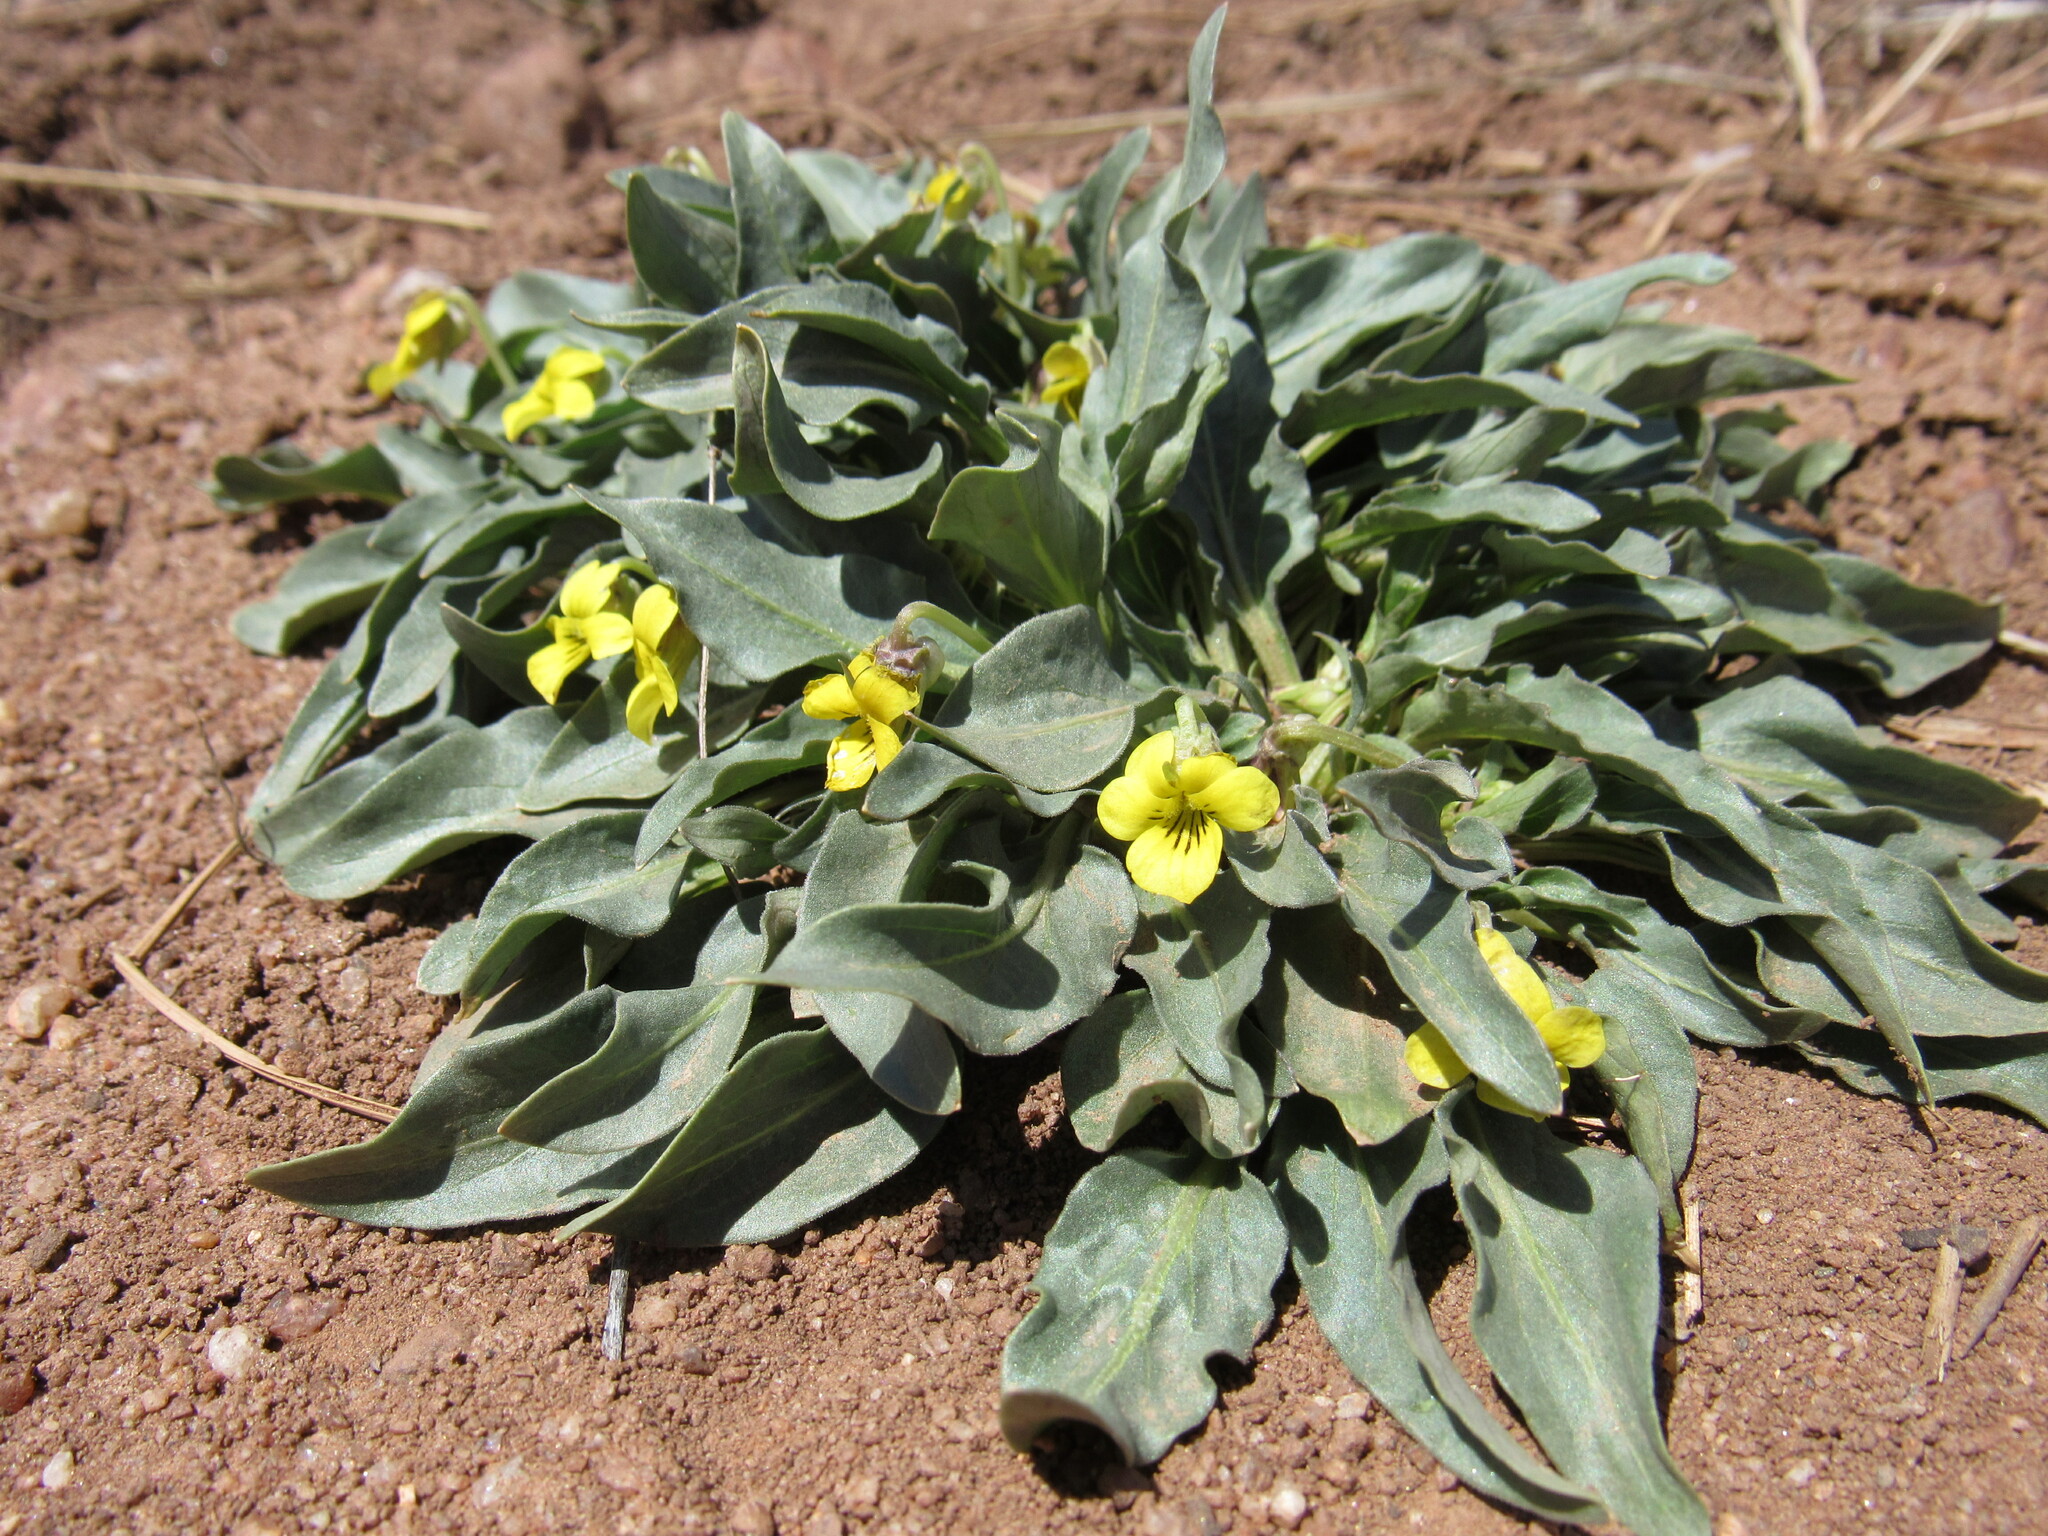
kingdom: Plantae
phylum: Tracheophyta
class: Magnoliopsida
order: Malpighiales
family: Violaceae
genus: Viola
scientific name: Viola nuttallii
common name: Yellow prairie violet
